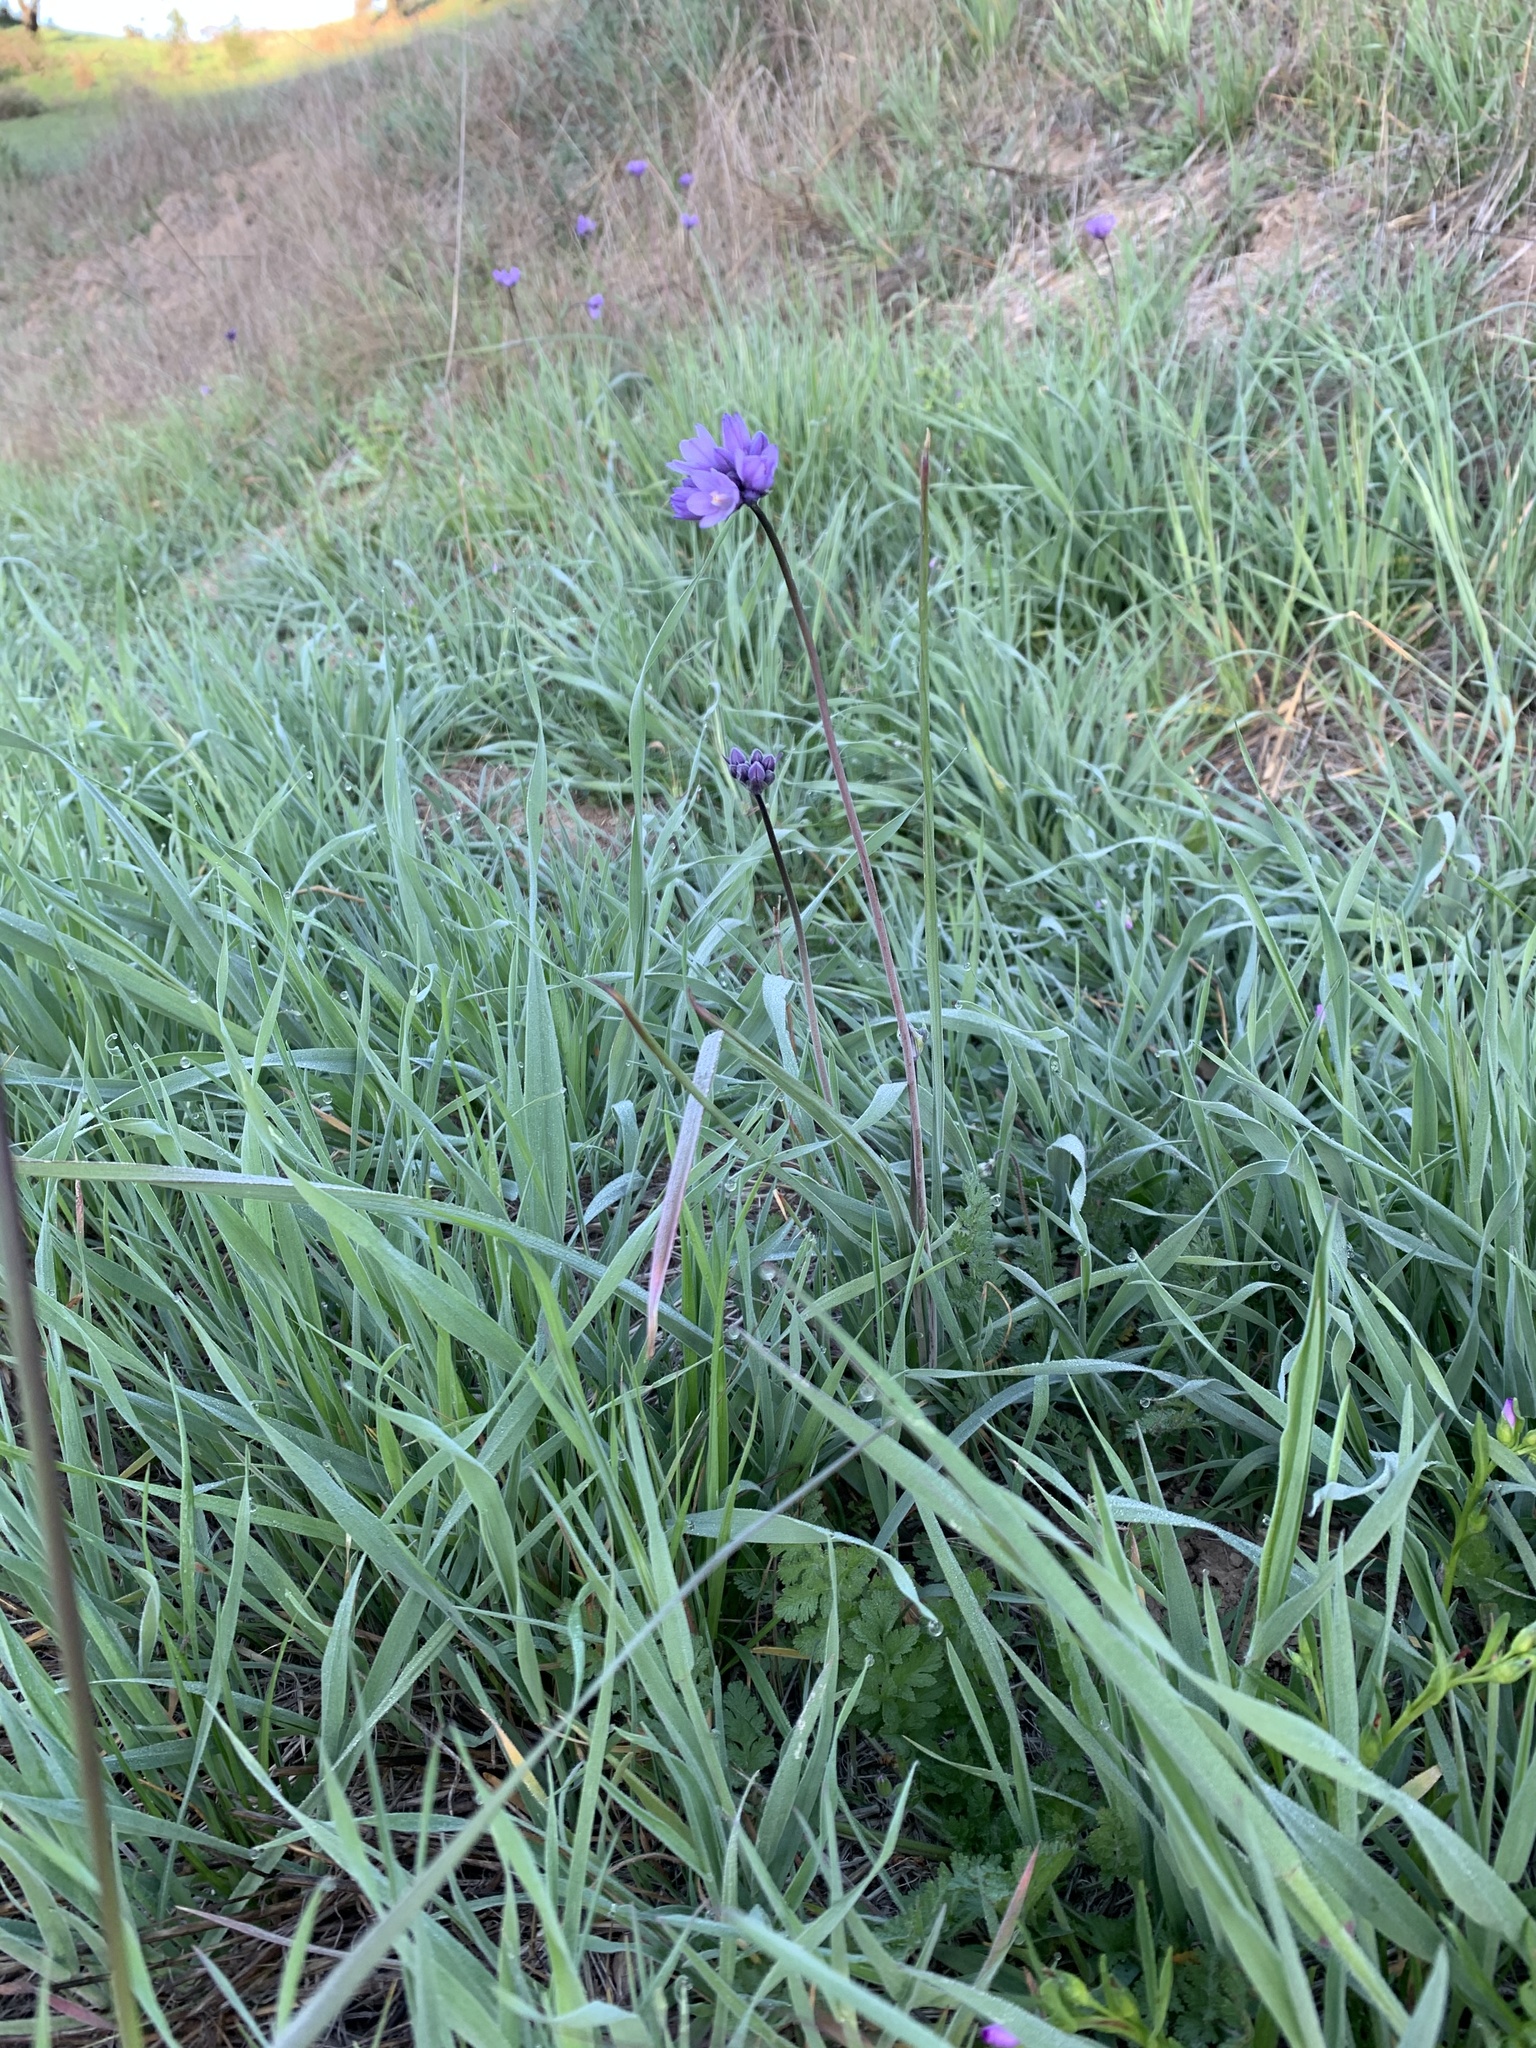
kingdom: Plantae
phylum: Tracheophyta
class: Liliopsida
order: Asparagales
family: Asparagaceae
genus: Dipterostemon
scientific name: Dipterostemon capitatus
